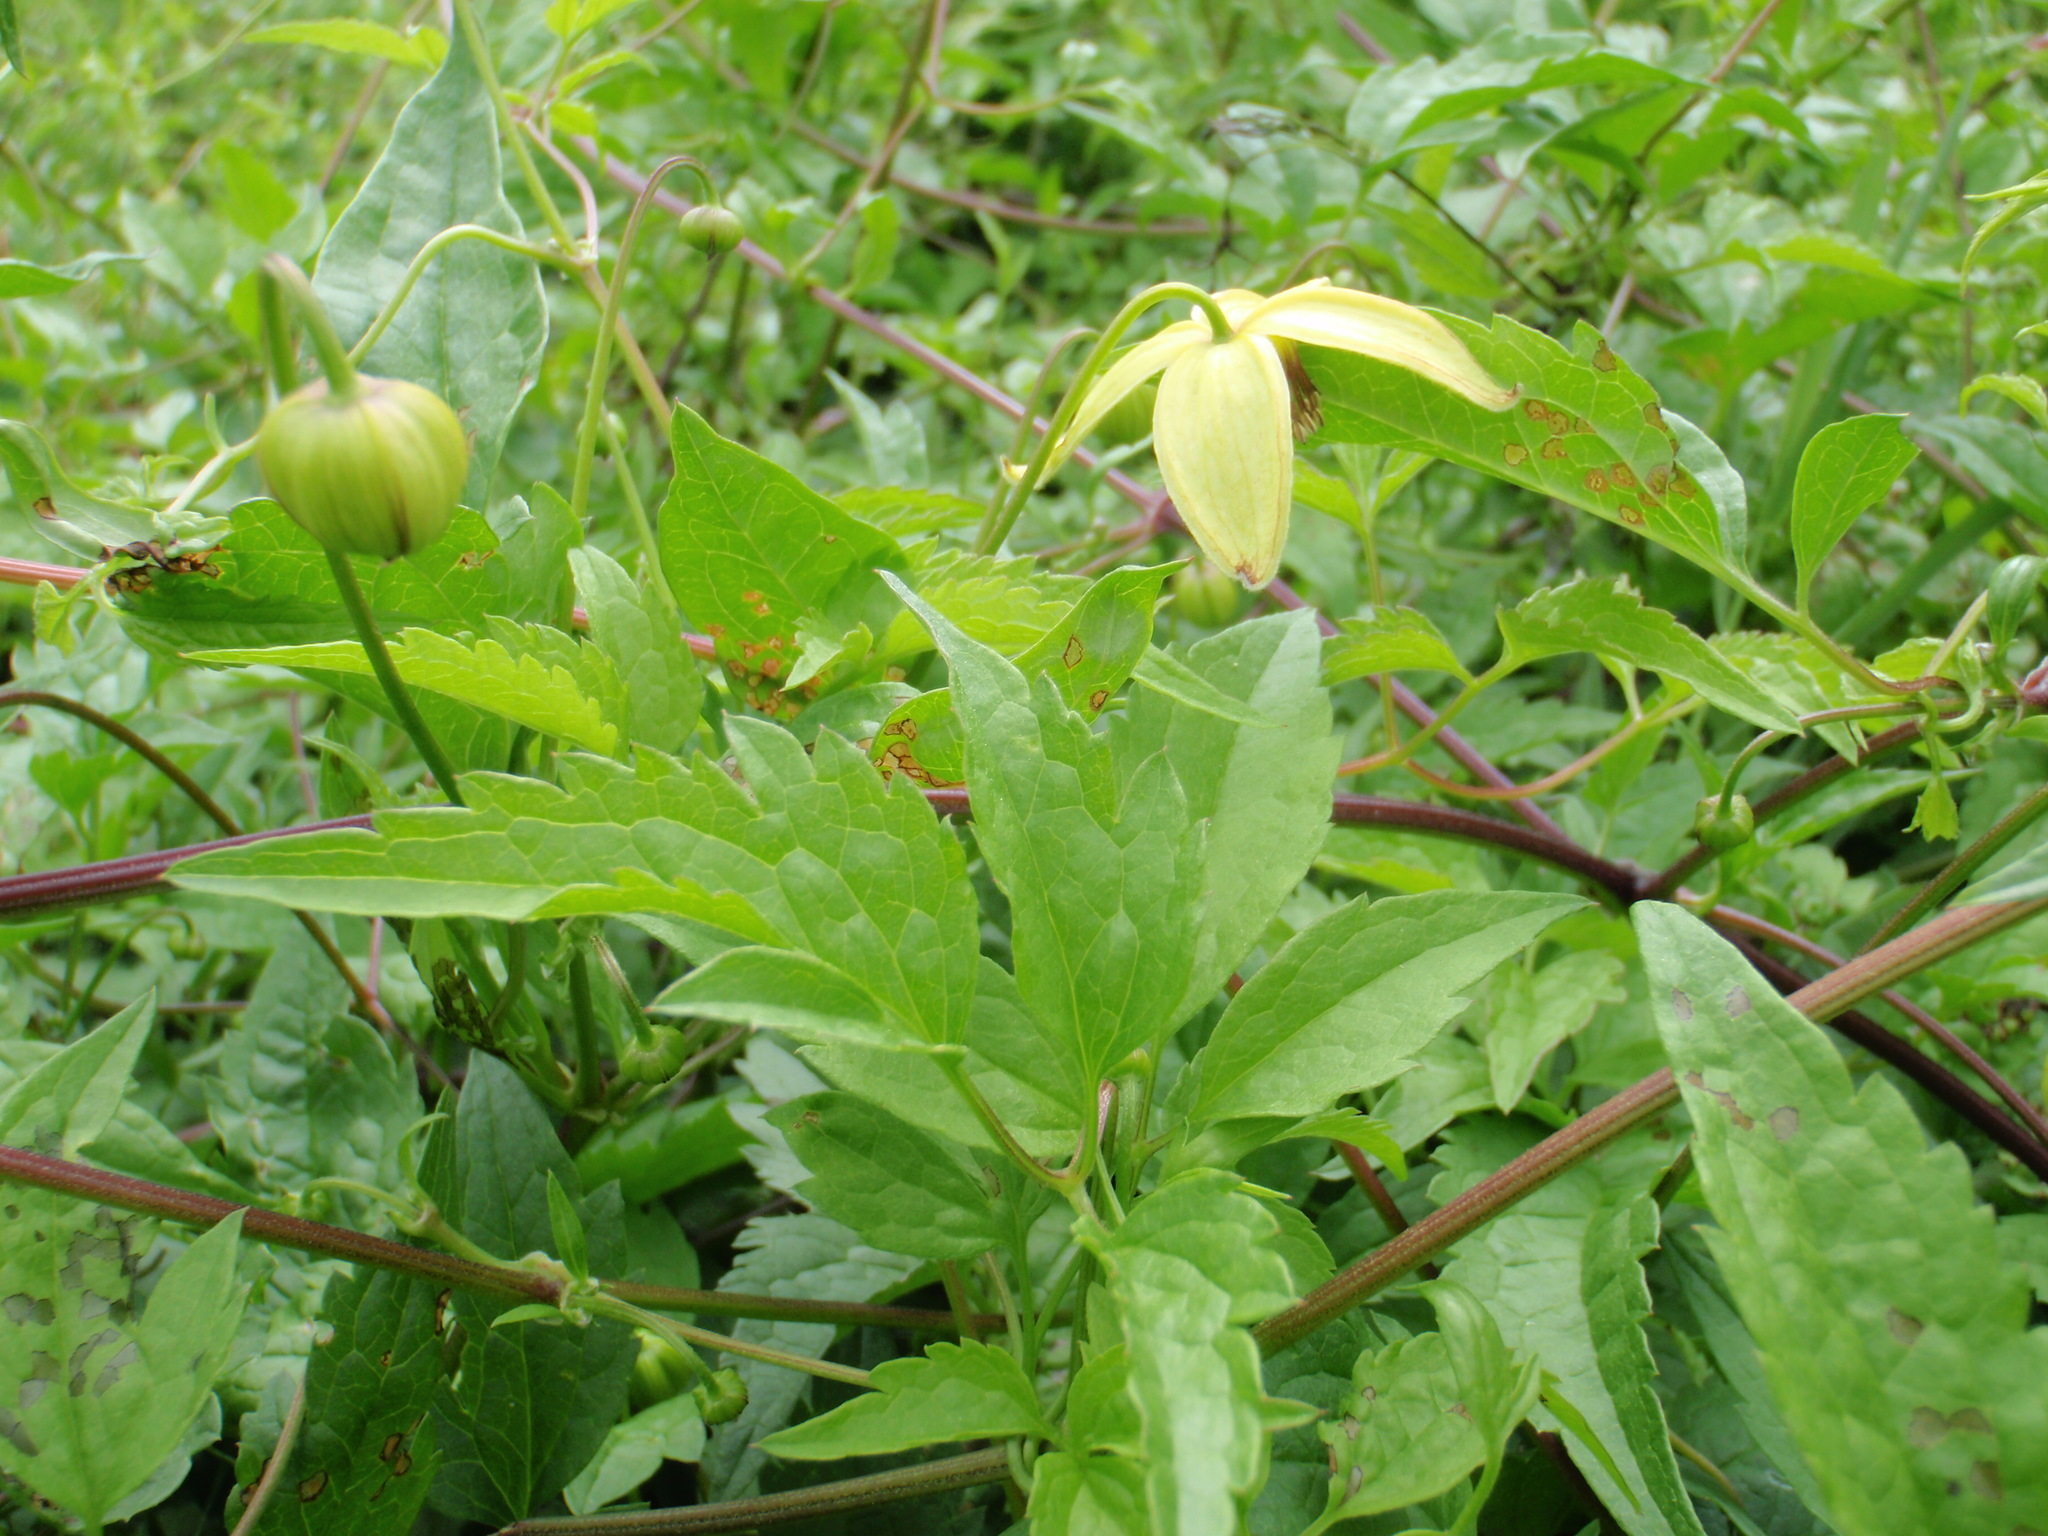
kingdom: Plantae
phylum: Tracheophyta
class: Magnoliopsida
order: Ranunculales
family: Ranunculaceae
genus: Clematis
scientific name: Clematis tangutica
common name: Orange-peel clematis
